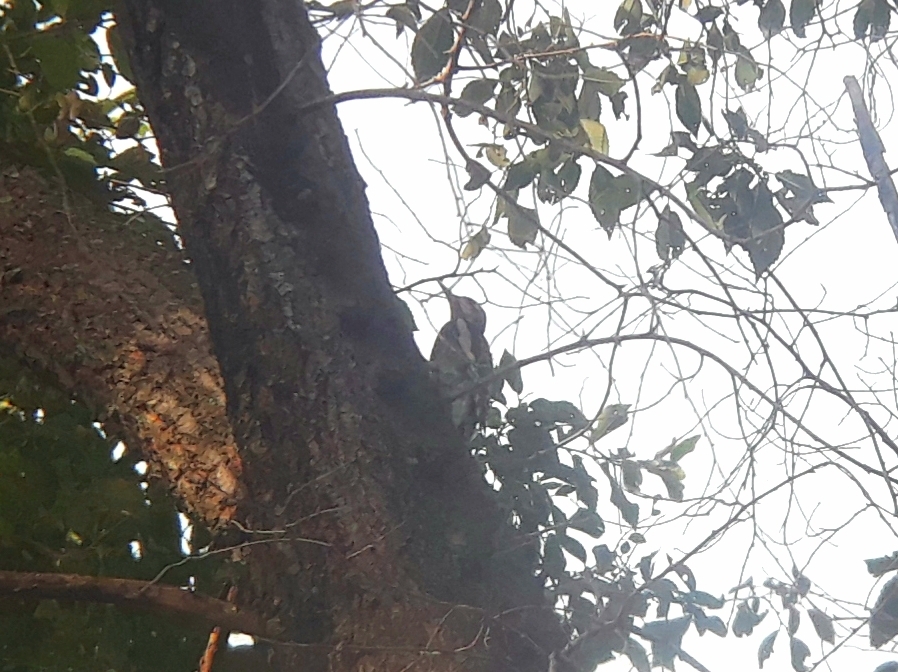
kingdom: Animalia
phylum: Chordata
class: Aves
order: Piciformes
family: Picidae
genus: Sphyrapicus
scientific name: Sphyrapicus varius
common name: Yellow-bellied sapsucker
